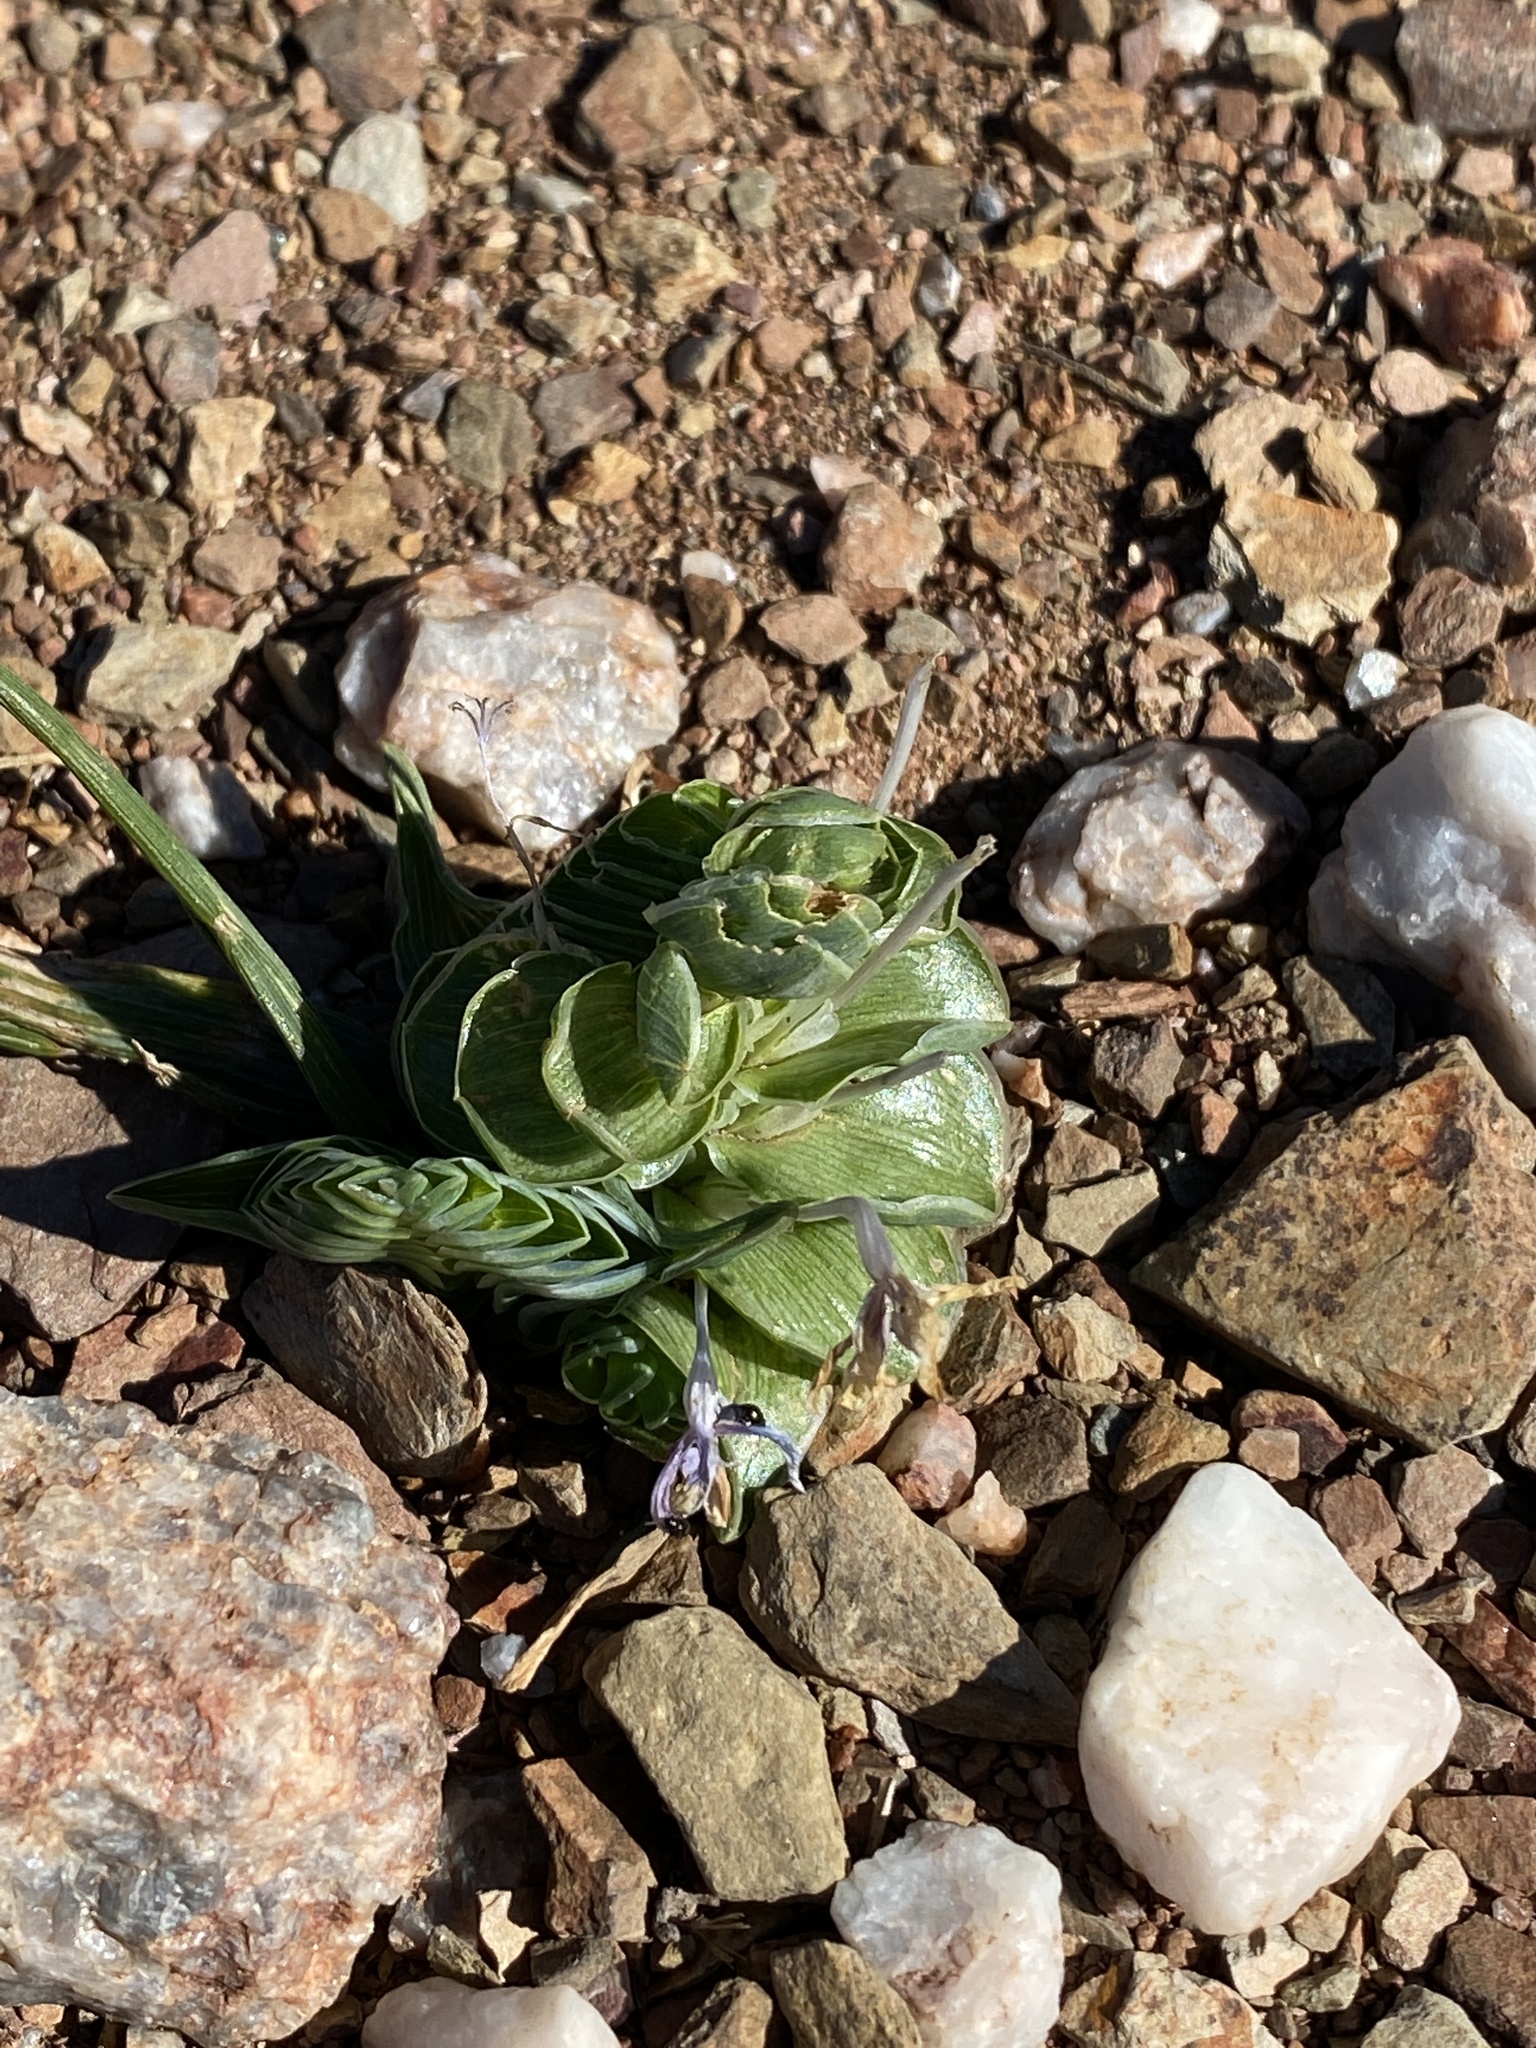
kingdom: Plantae
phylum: Tracheophyta
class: Liliopsida
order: Asparagales
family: Iridaceae
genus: Lapeirousia
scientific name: Lapeirousia pyramidalis
